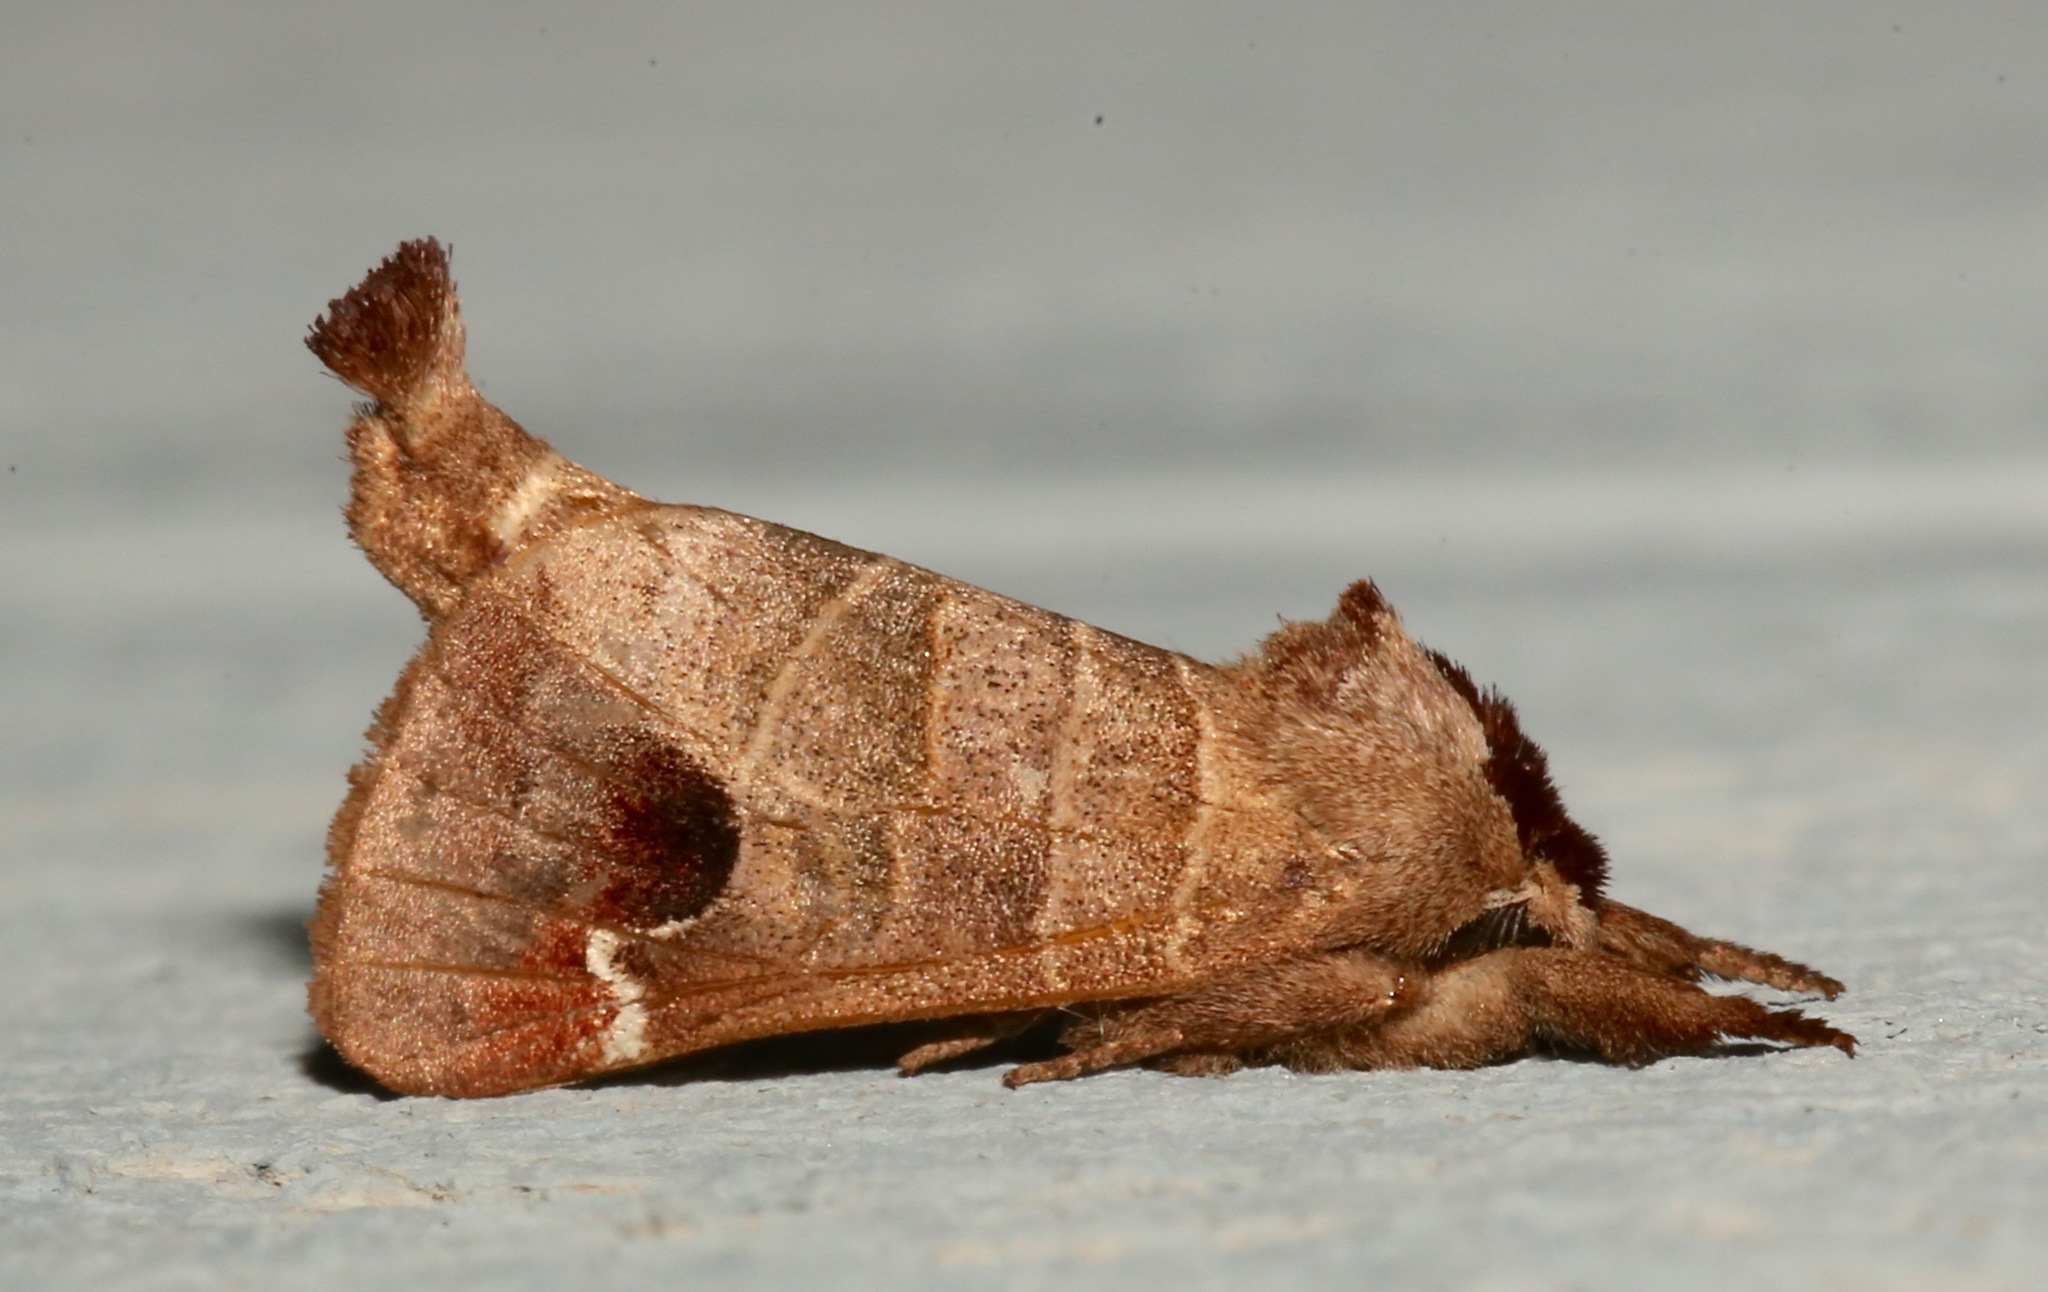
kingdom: Animalia
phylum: Arthropoda
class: Insecta
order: Lepidoptera
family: Notodontidae
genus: Clostera
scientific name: Clostera albosigma
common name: Sigmoid prominent
